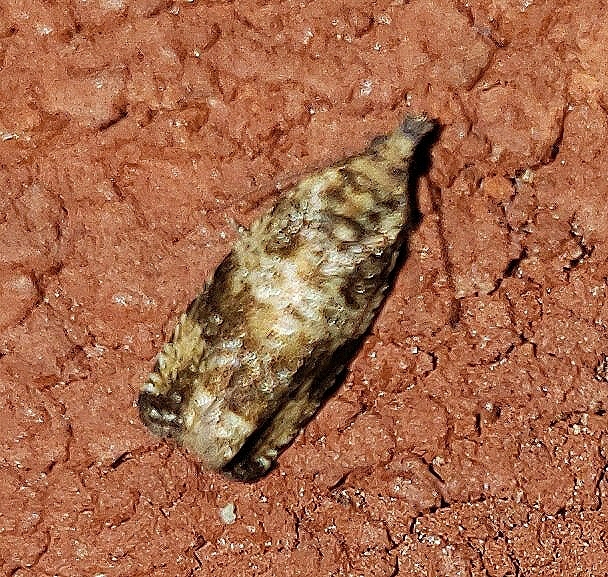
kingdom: Animalia
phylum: Arthropoda
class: Insecta
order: Lepidoptera
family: Tortricidae
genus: Celypha
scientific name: Celypha cespitana
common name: Thyme marble
